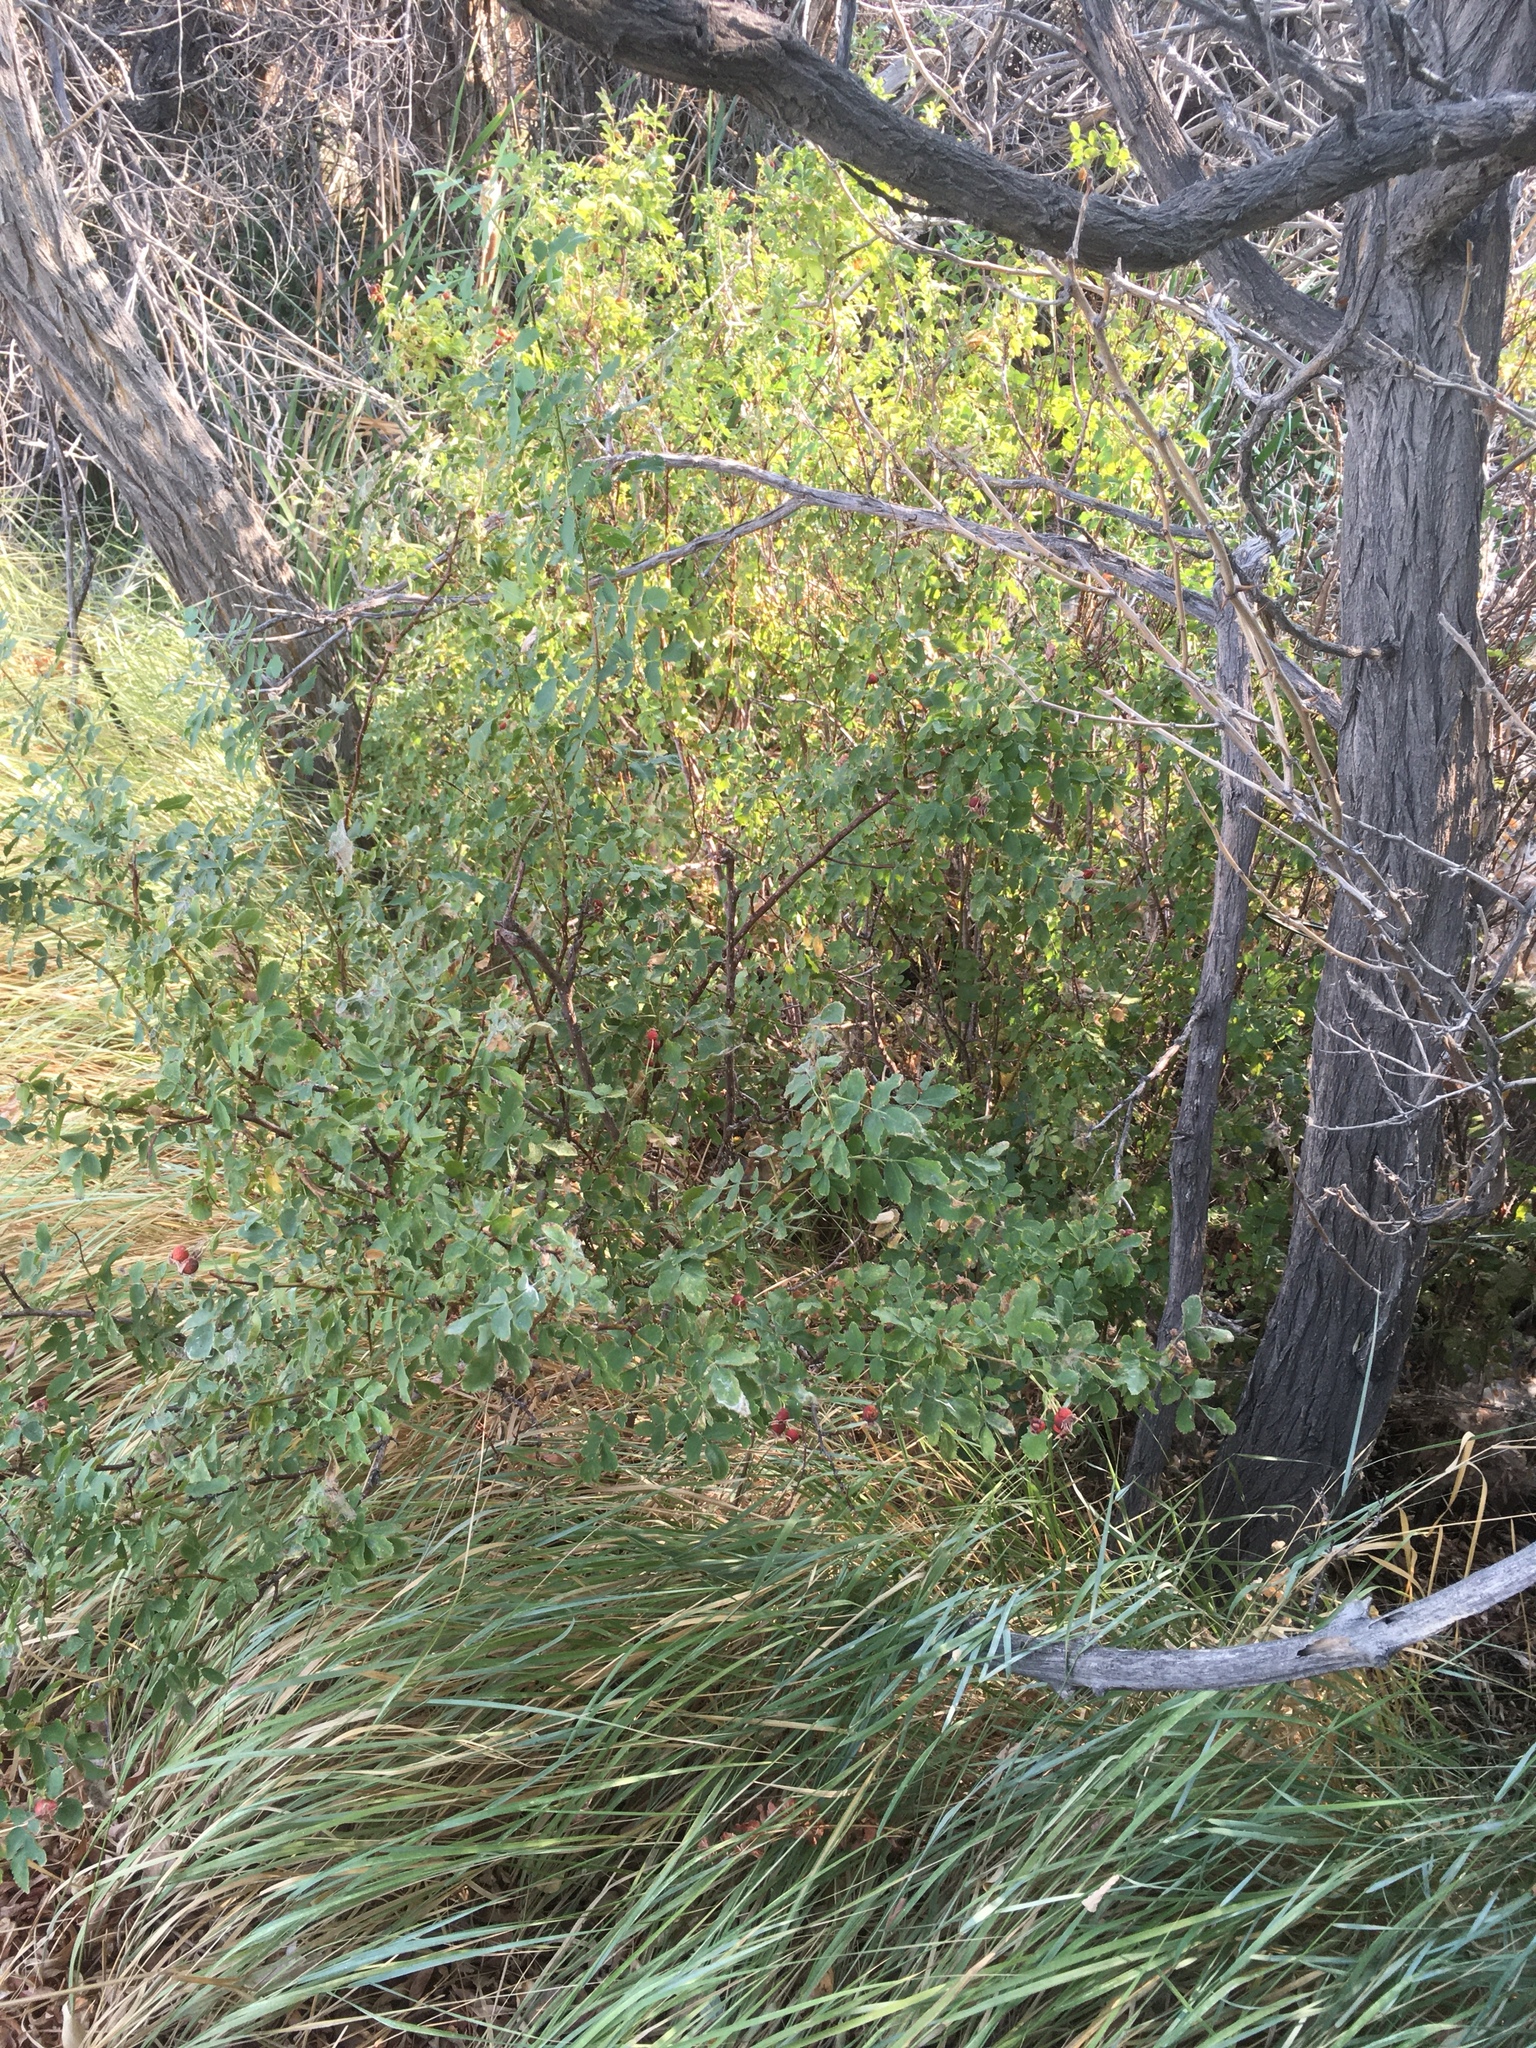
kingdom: Plantae
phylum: Tracheophyta
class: Magnoliopsida
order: Rosales
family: Rosaceae
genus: Rosa
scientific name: Rosa woodsii
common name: Woods's rose
